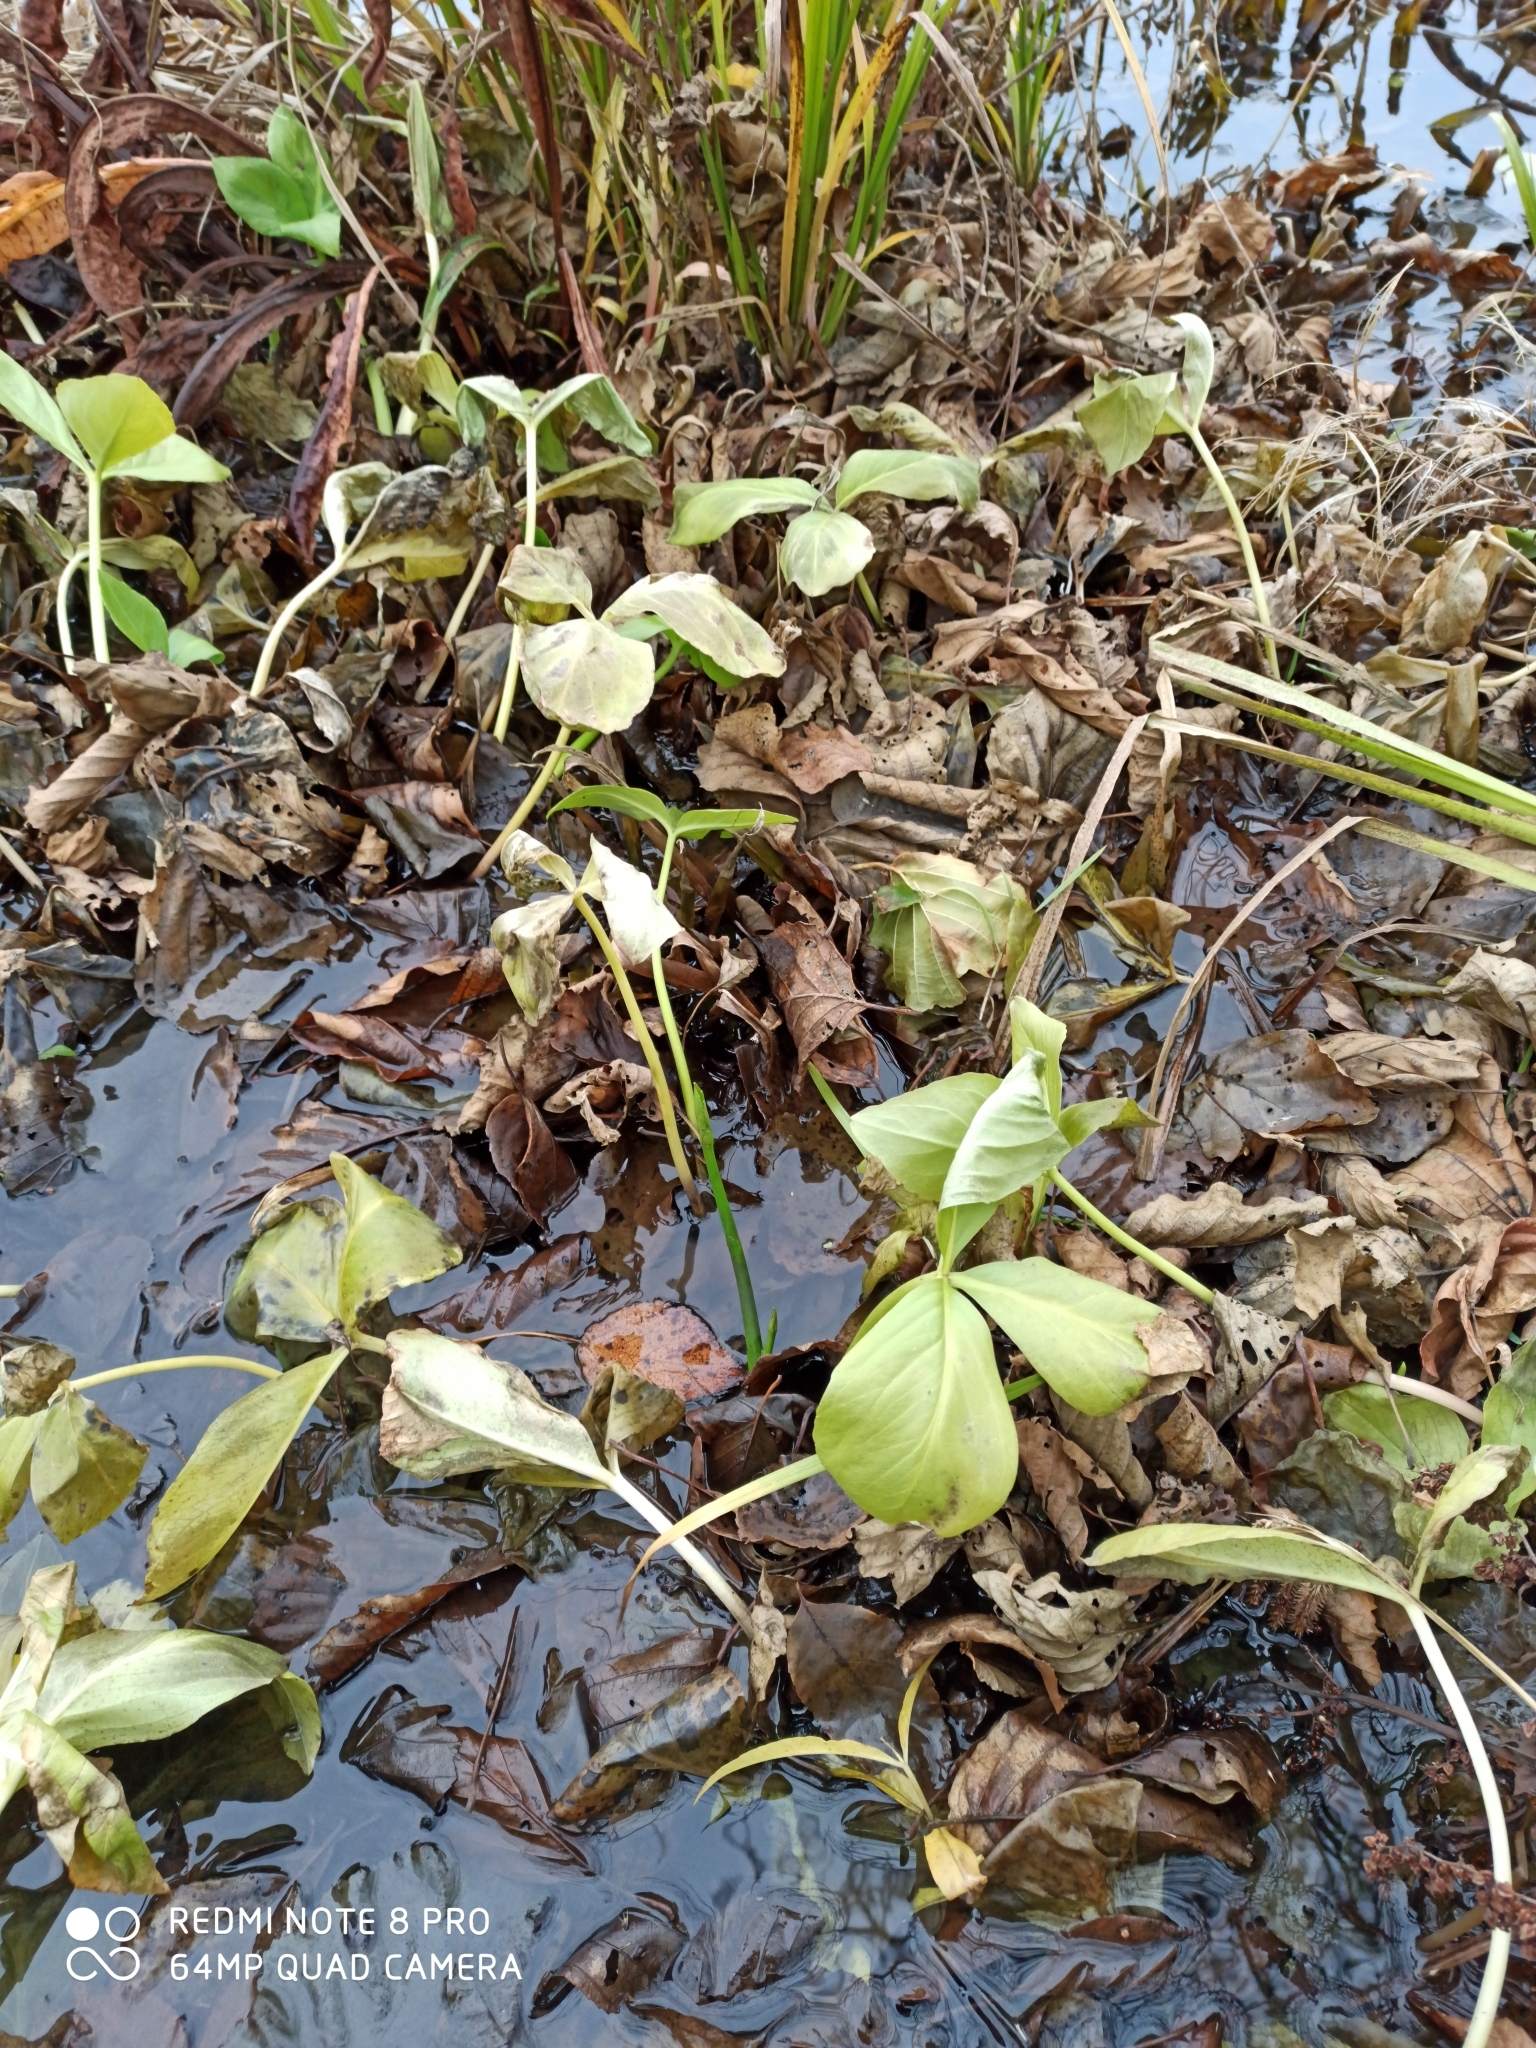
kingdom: Plantae
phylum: Tracheophyta
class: Magnoliopsida
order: Asterales
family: Menyanthaceae
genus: Menyanthes
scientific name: Menyanthes trifoliata
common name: Bogbean
